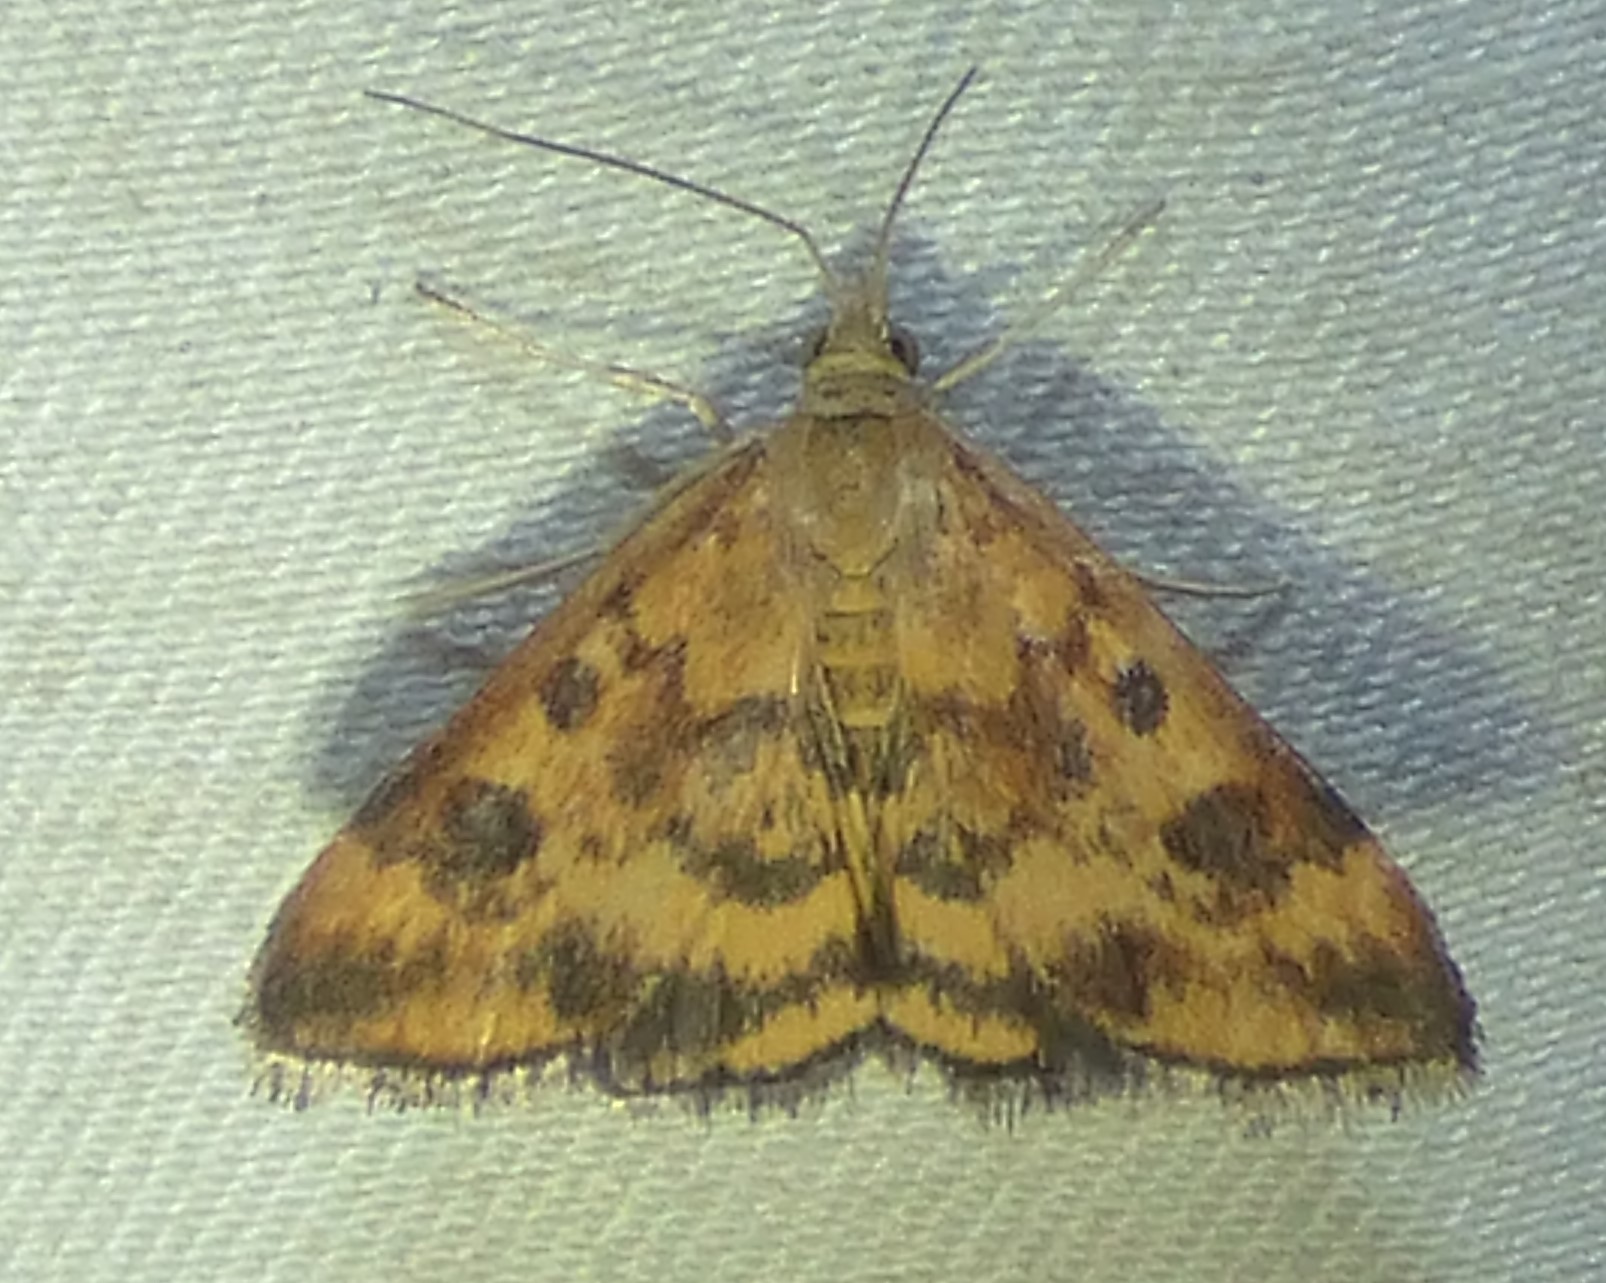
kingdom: Animalia
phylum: Arthropoda
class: Insecta
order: Lepidoptera
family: Crambidae
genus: Pyrausta
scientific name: Pyrausta subsequalis
